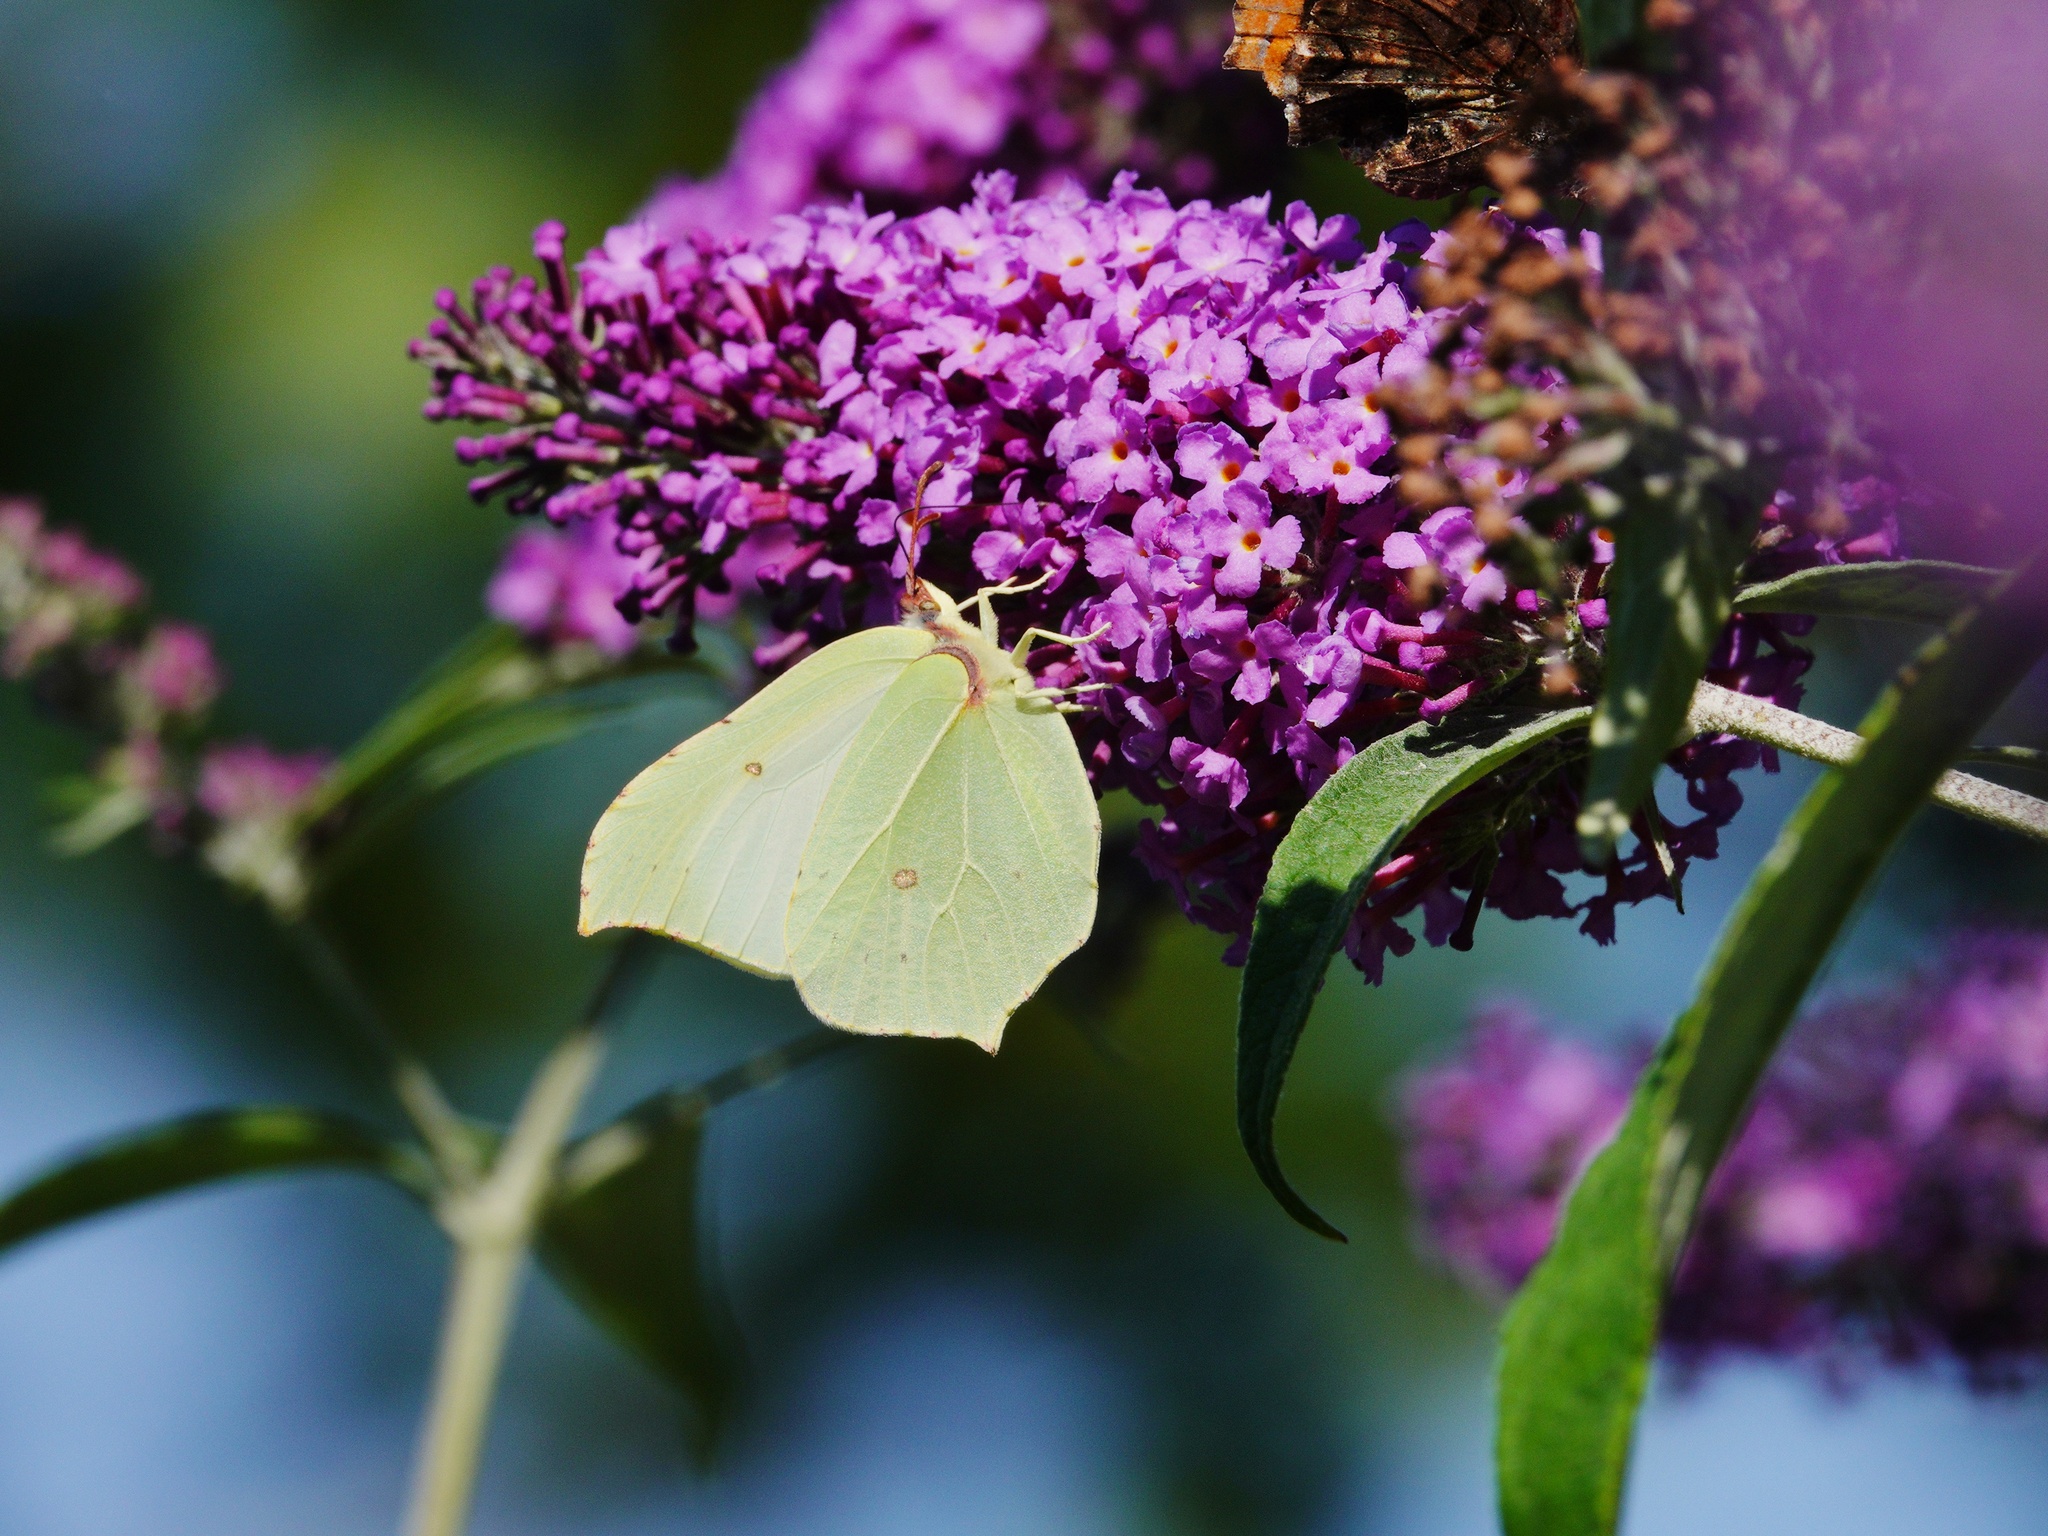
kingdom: Animalia
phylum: Arthropoda
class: Insecta
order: Lepidoptera
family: Pieridae
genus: Gonepteryx
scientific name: Gonepteryx rhamni
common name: Brimstone
